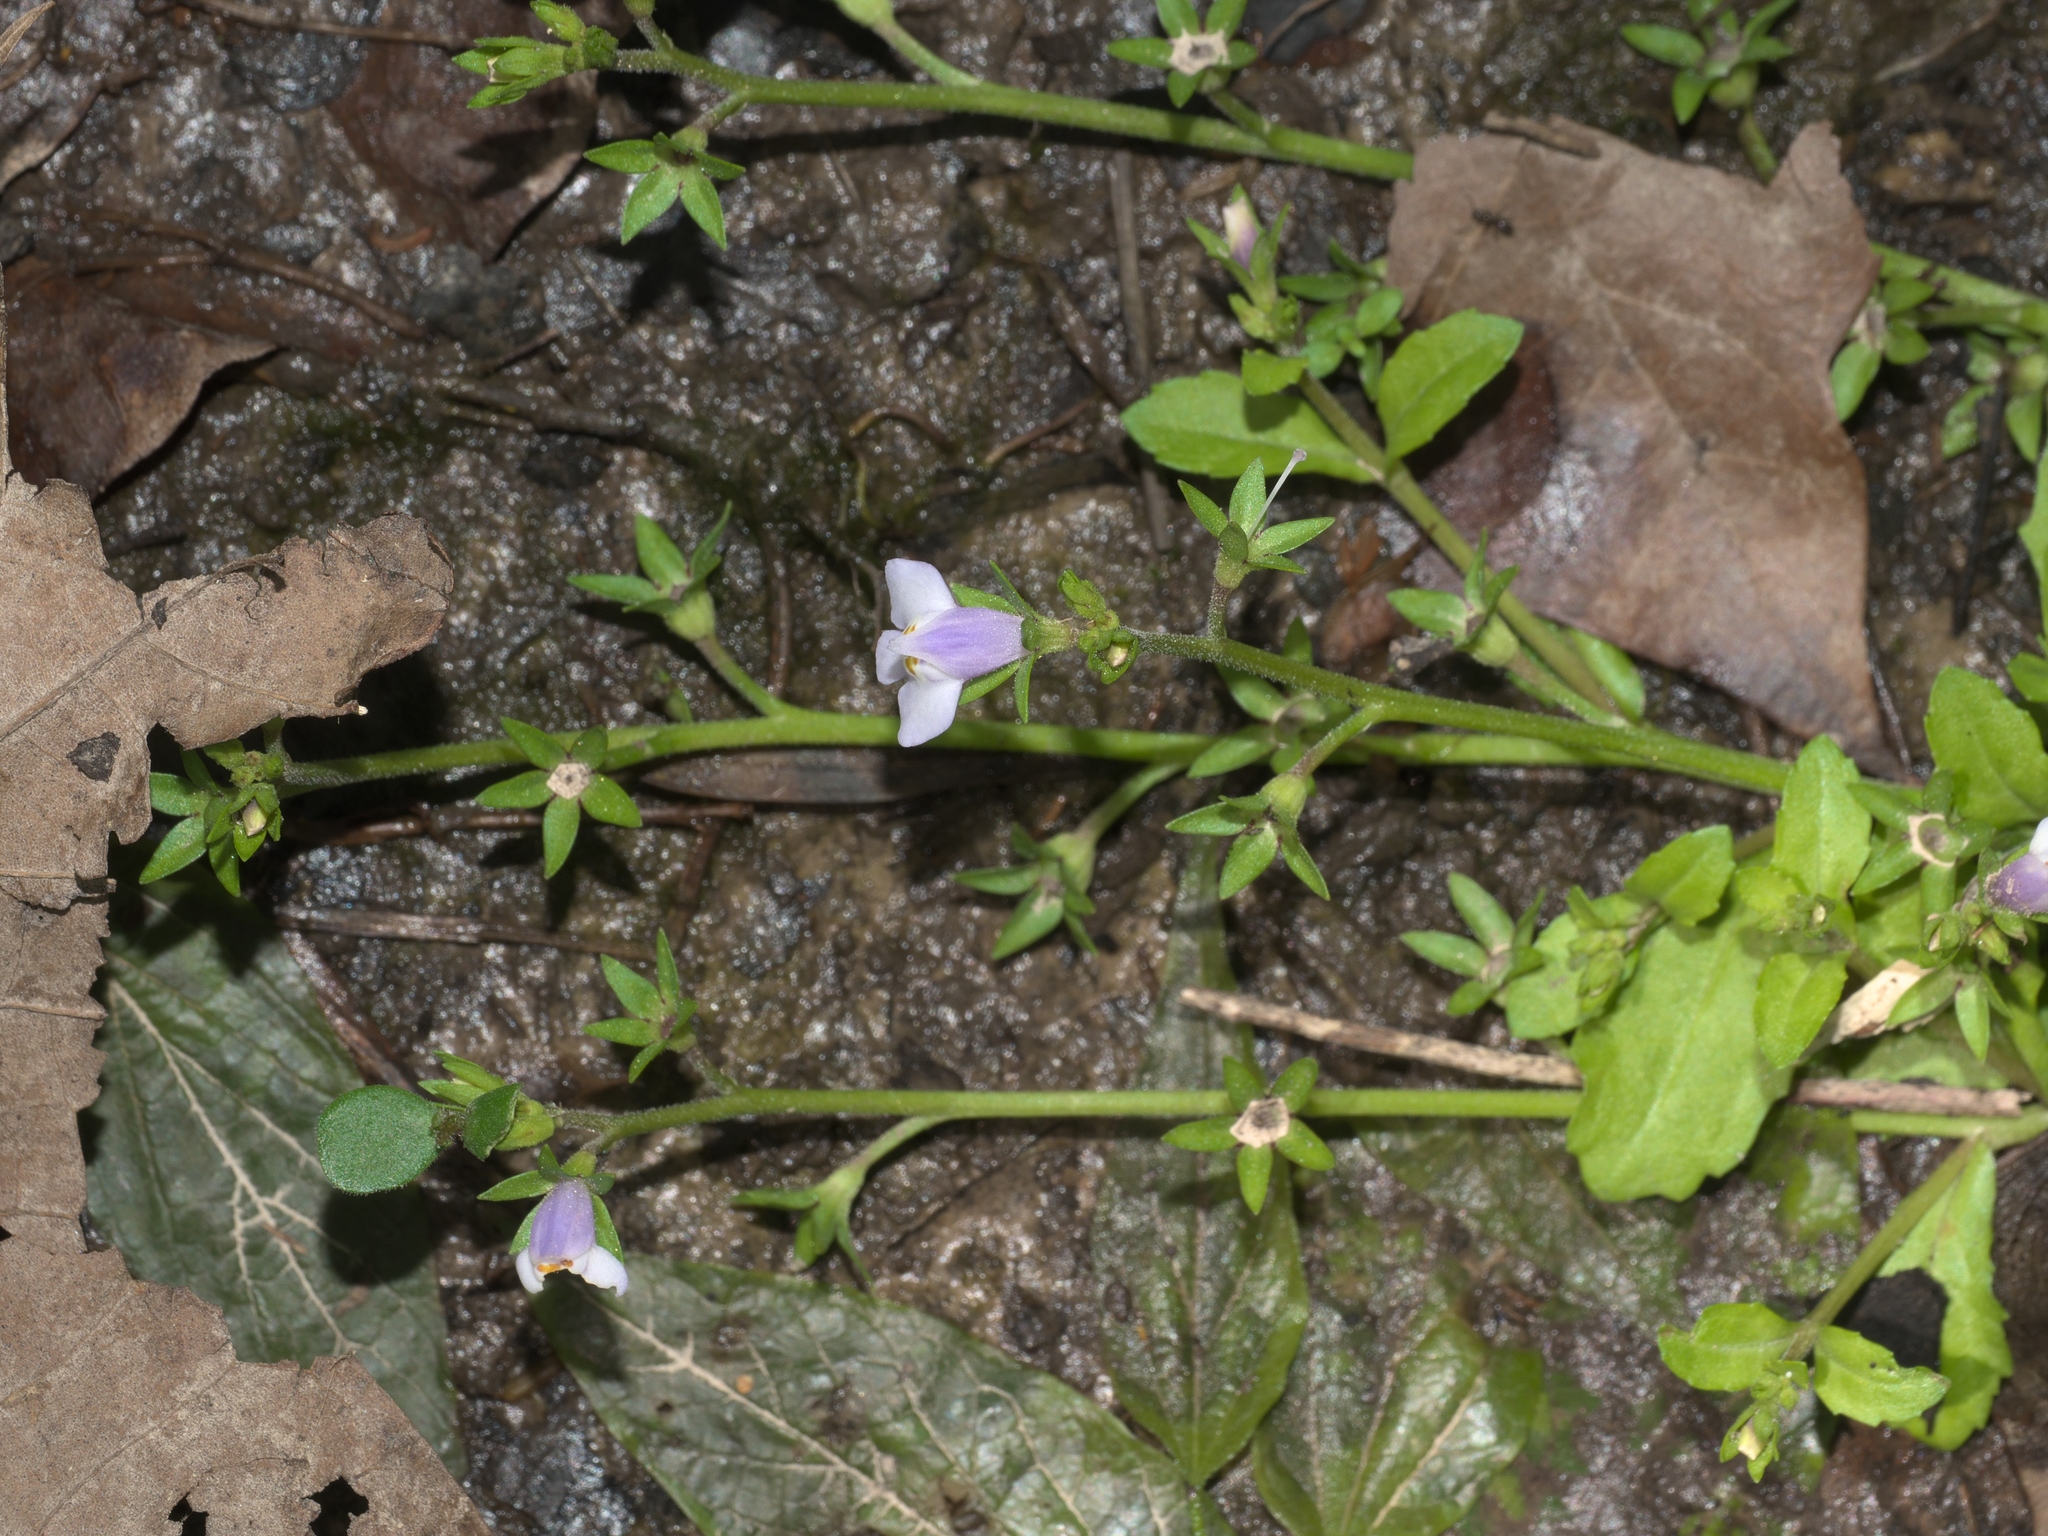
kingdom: Plantae
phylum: Tracheophyta
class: Magnoliopsida
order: Lamiales
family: Mazaceae
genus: Mazus
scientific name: Mazus pumilus
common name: Japanese mazus
